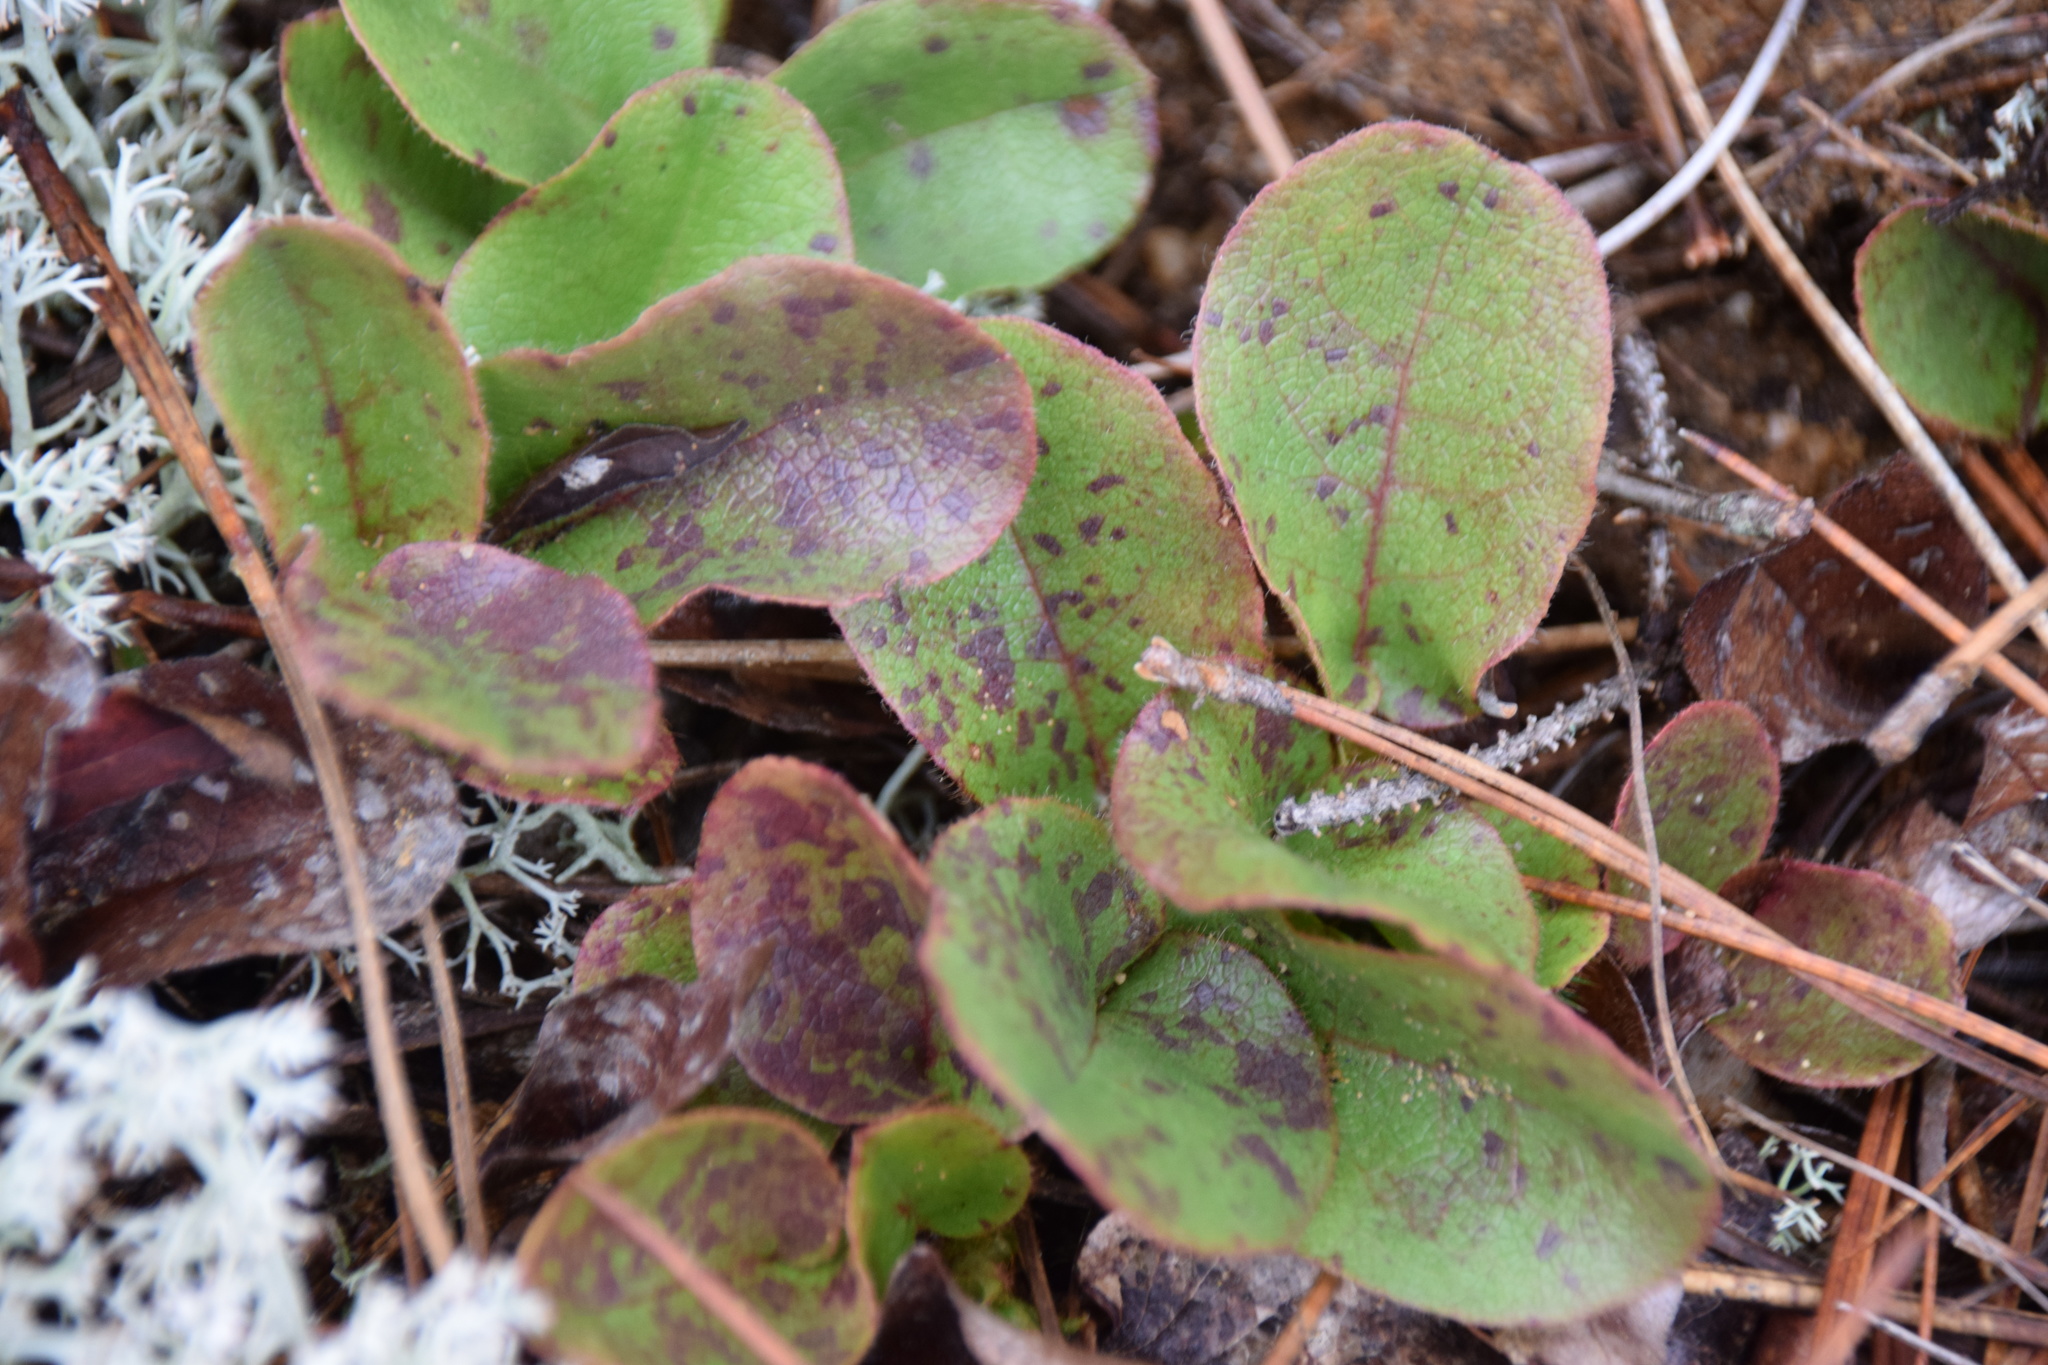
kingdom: Plantae
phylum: Tracheophyta
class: Magnoliopsida
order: Ericales
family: Ericaceae
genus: Epigaea
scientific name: Epigaea repens
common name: Gravelroot
